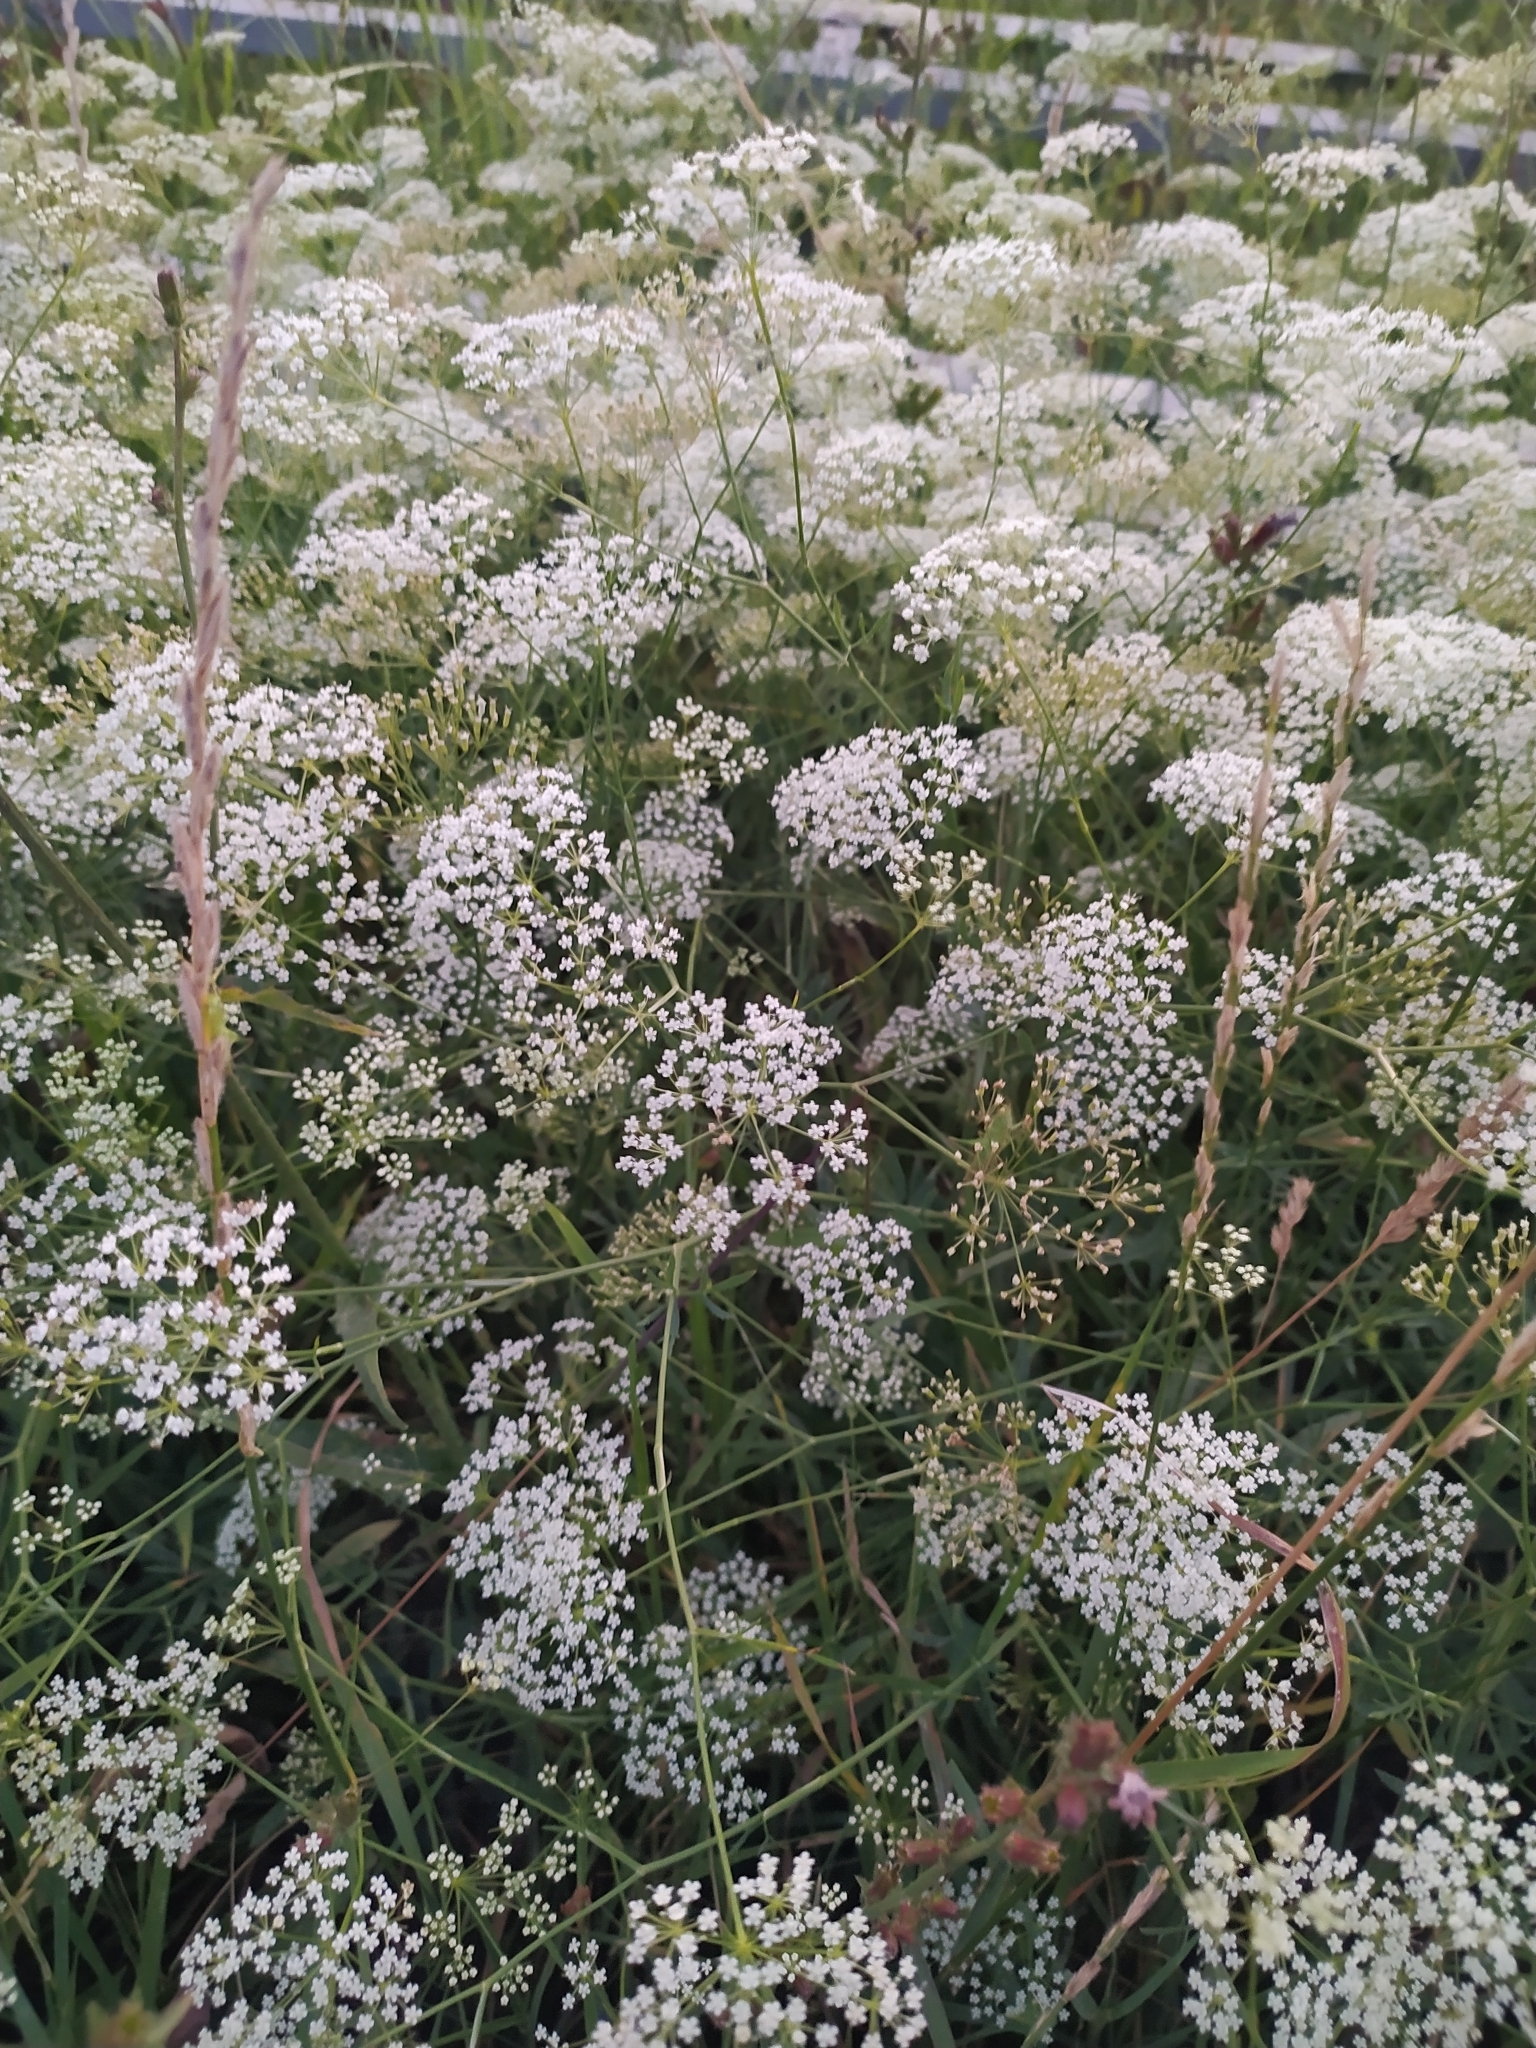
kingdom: Plantae
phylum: Tracheophyta
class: Magnoliopsida
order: Apiales
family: Apiaceae
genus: Falcaria
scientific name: Falcaria vulgaris
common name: Longleaf
